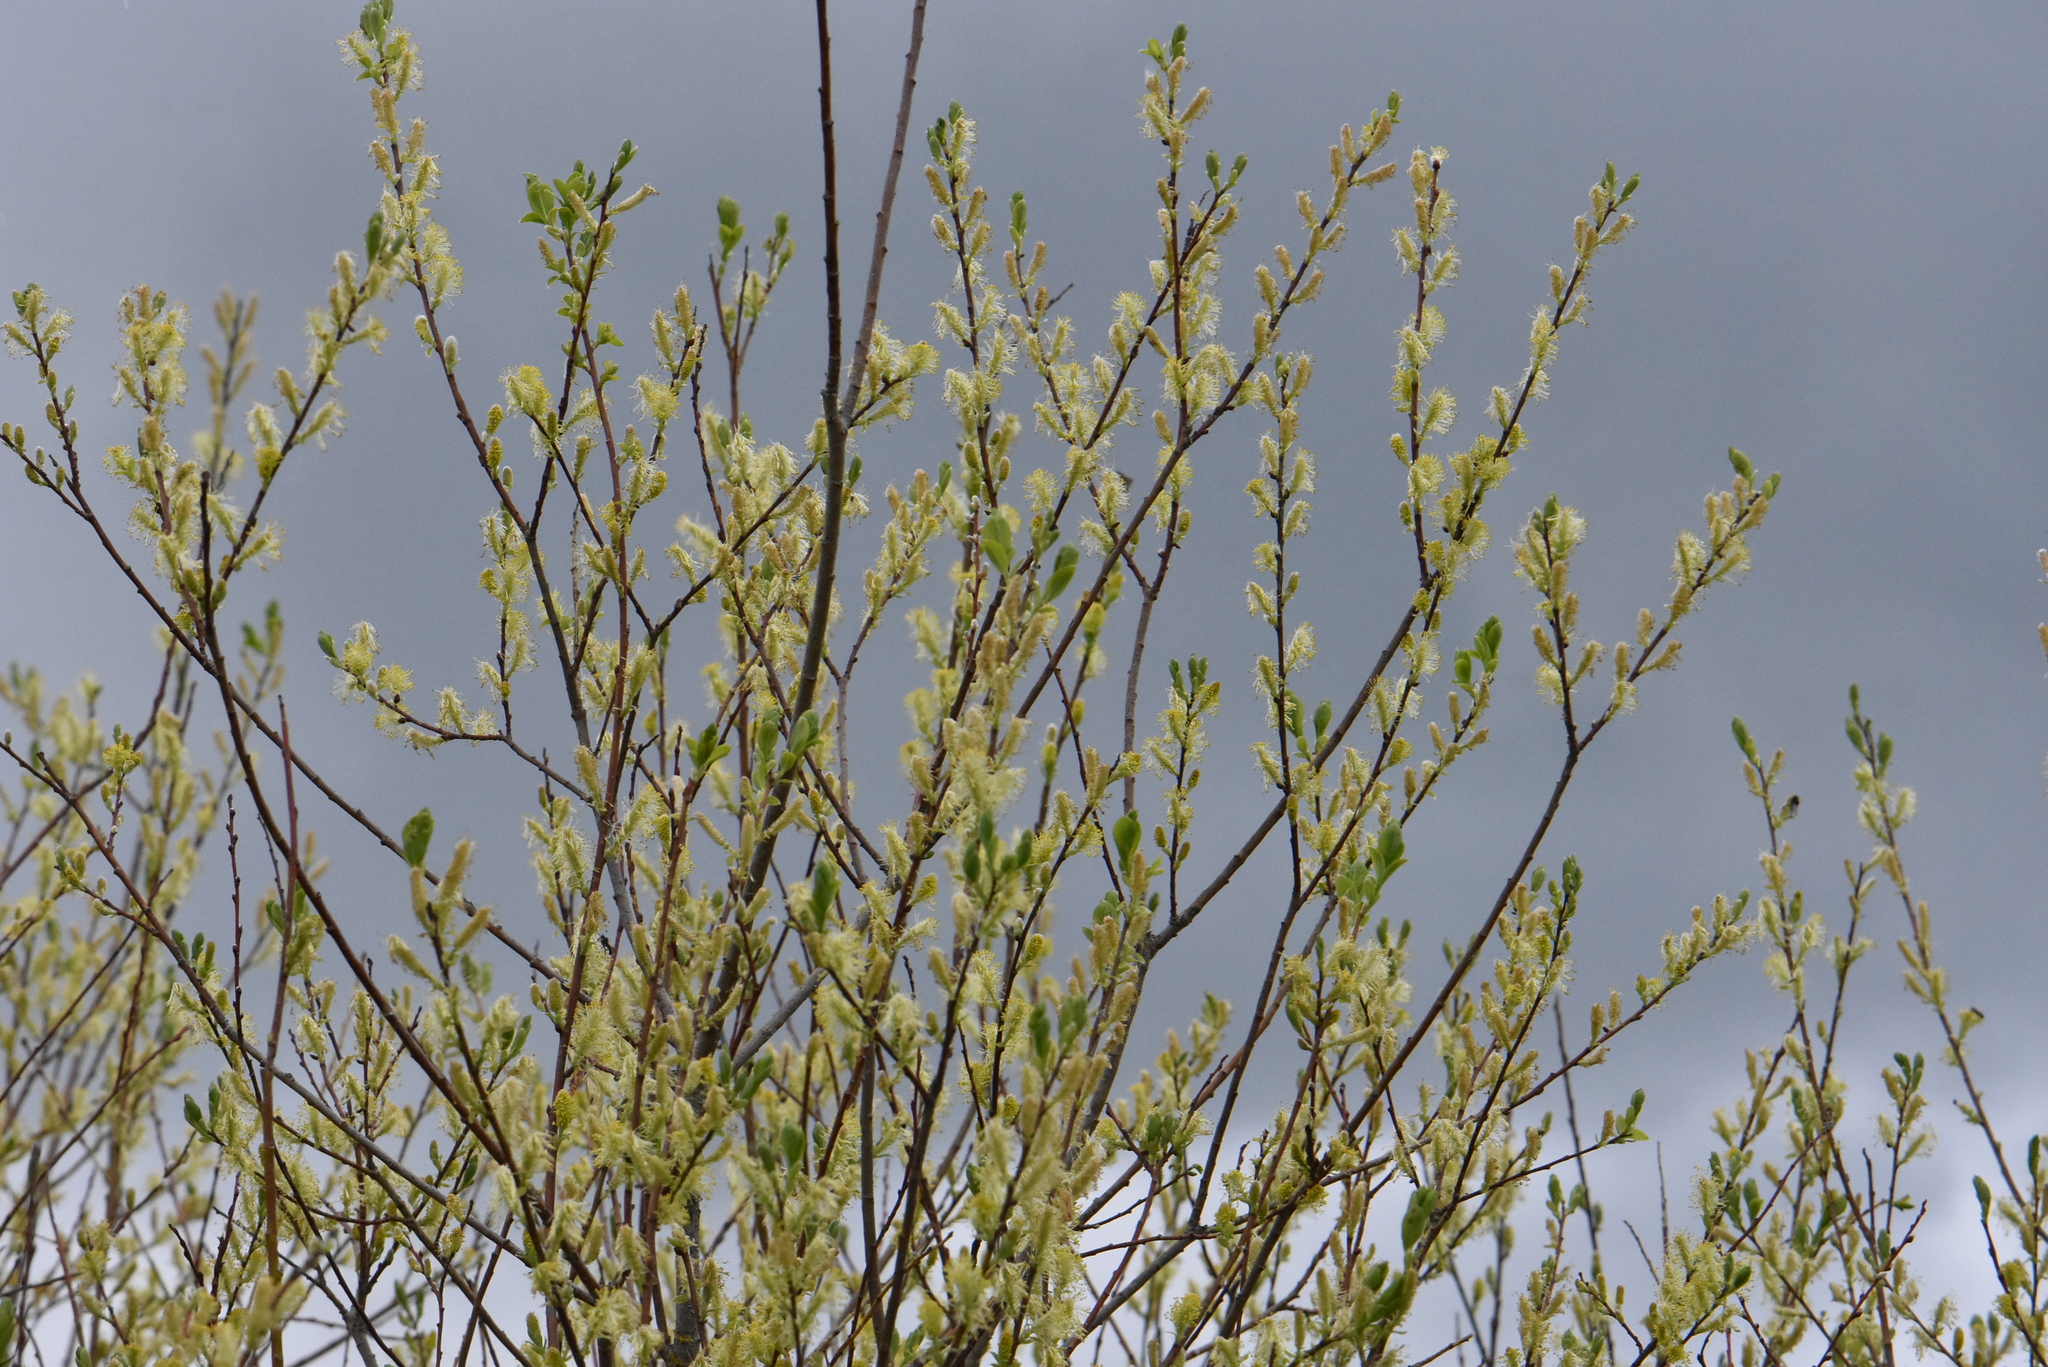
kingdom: Plantae
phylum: Tracheophyta
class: Magnoliopsida
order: Malpighiales
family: Salicaceae
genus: Salix
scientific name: Salix starkeana
